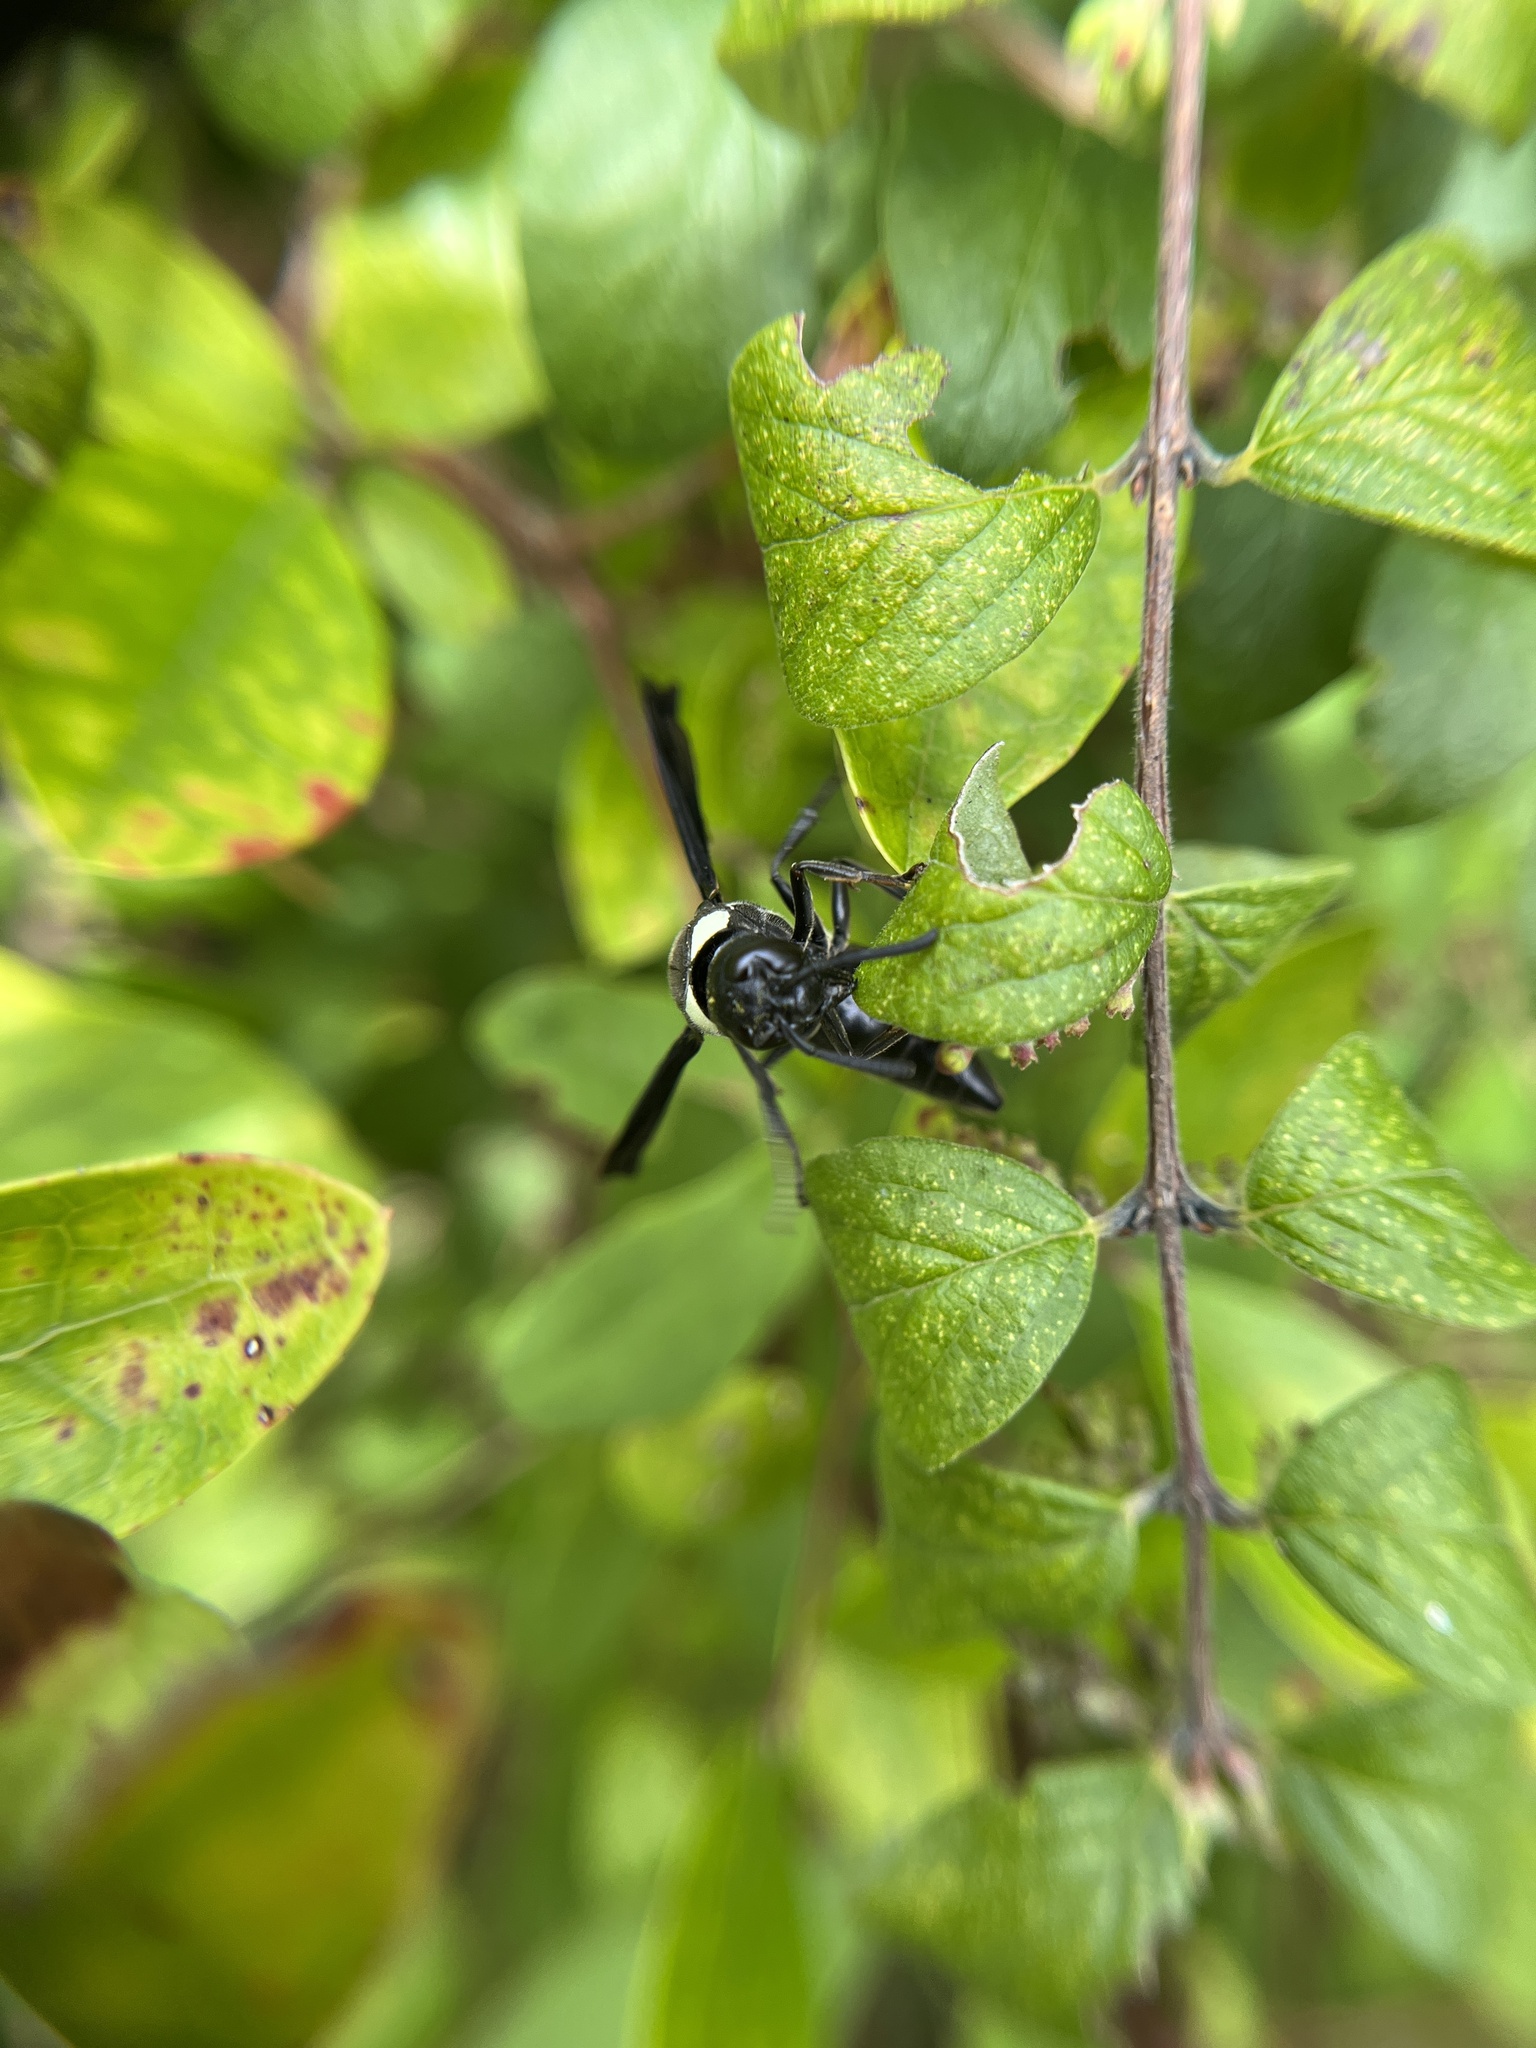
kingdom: Animalia
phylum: Arthropoda
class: Insecta
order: Hymenoptera
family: Eumenidae
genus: Monobia
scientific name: Monobia quadridens
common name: Four-toothed mason wasp
